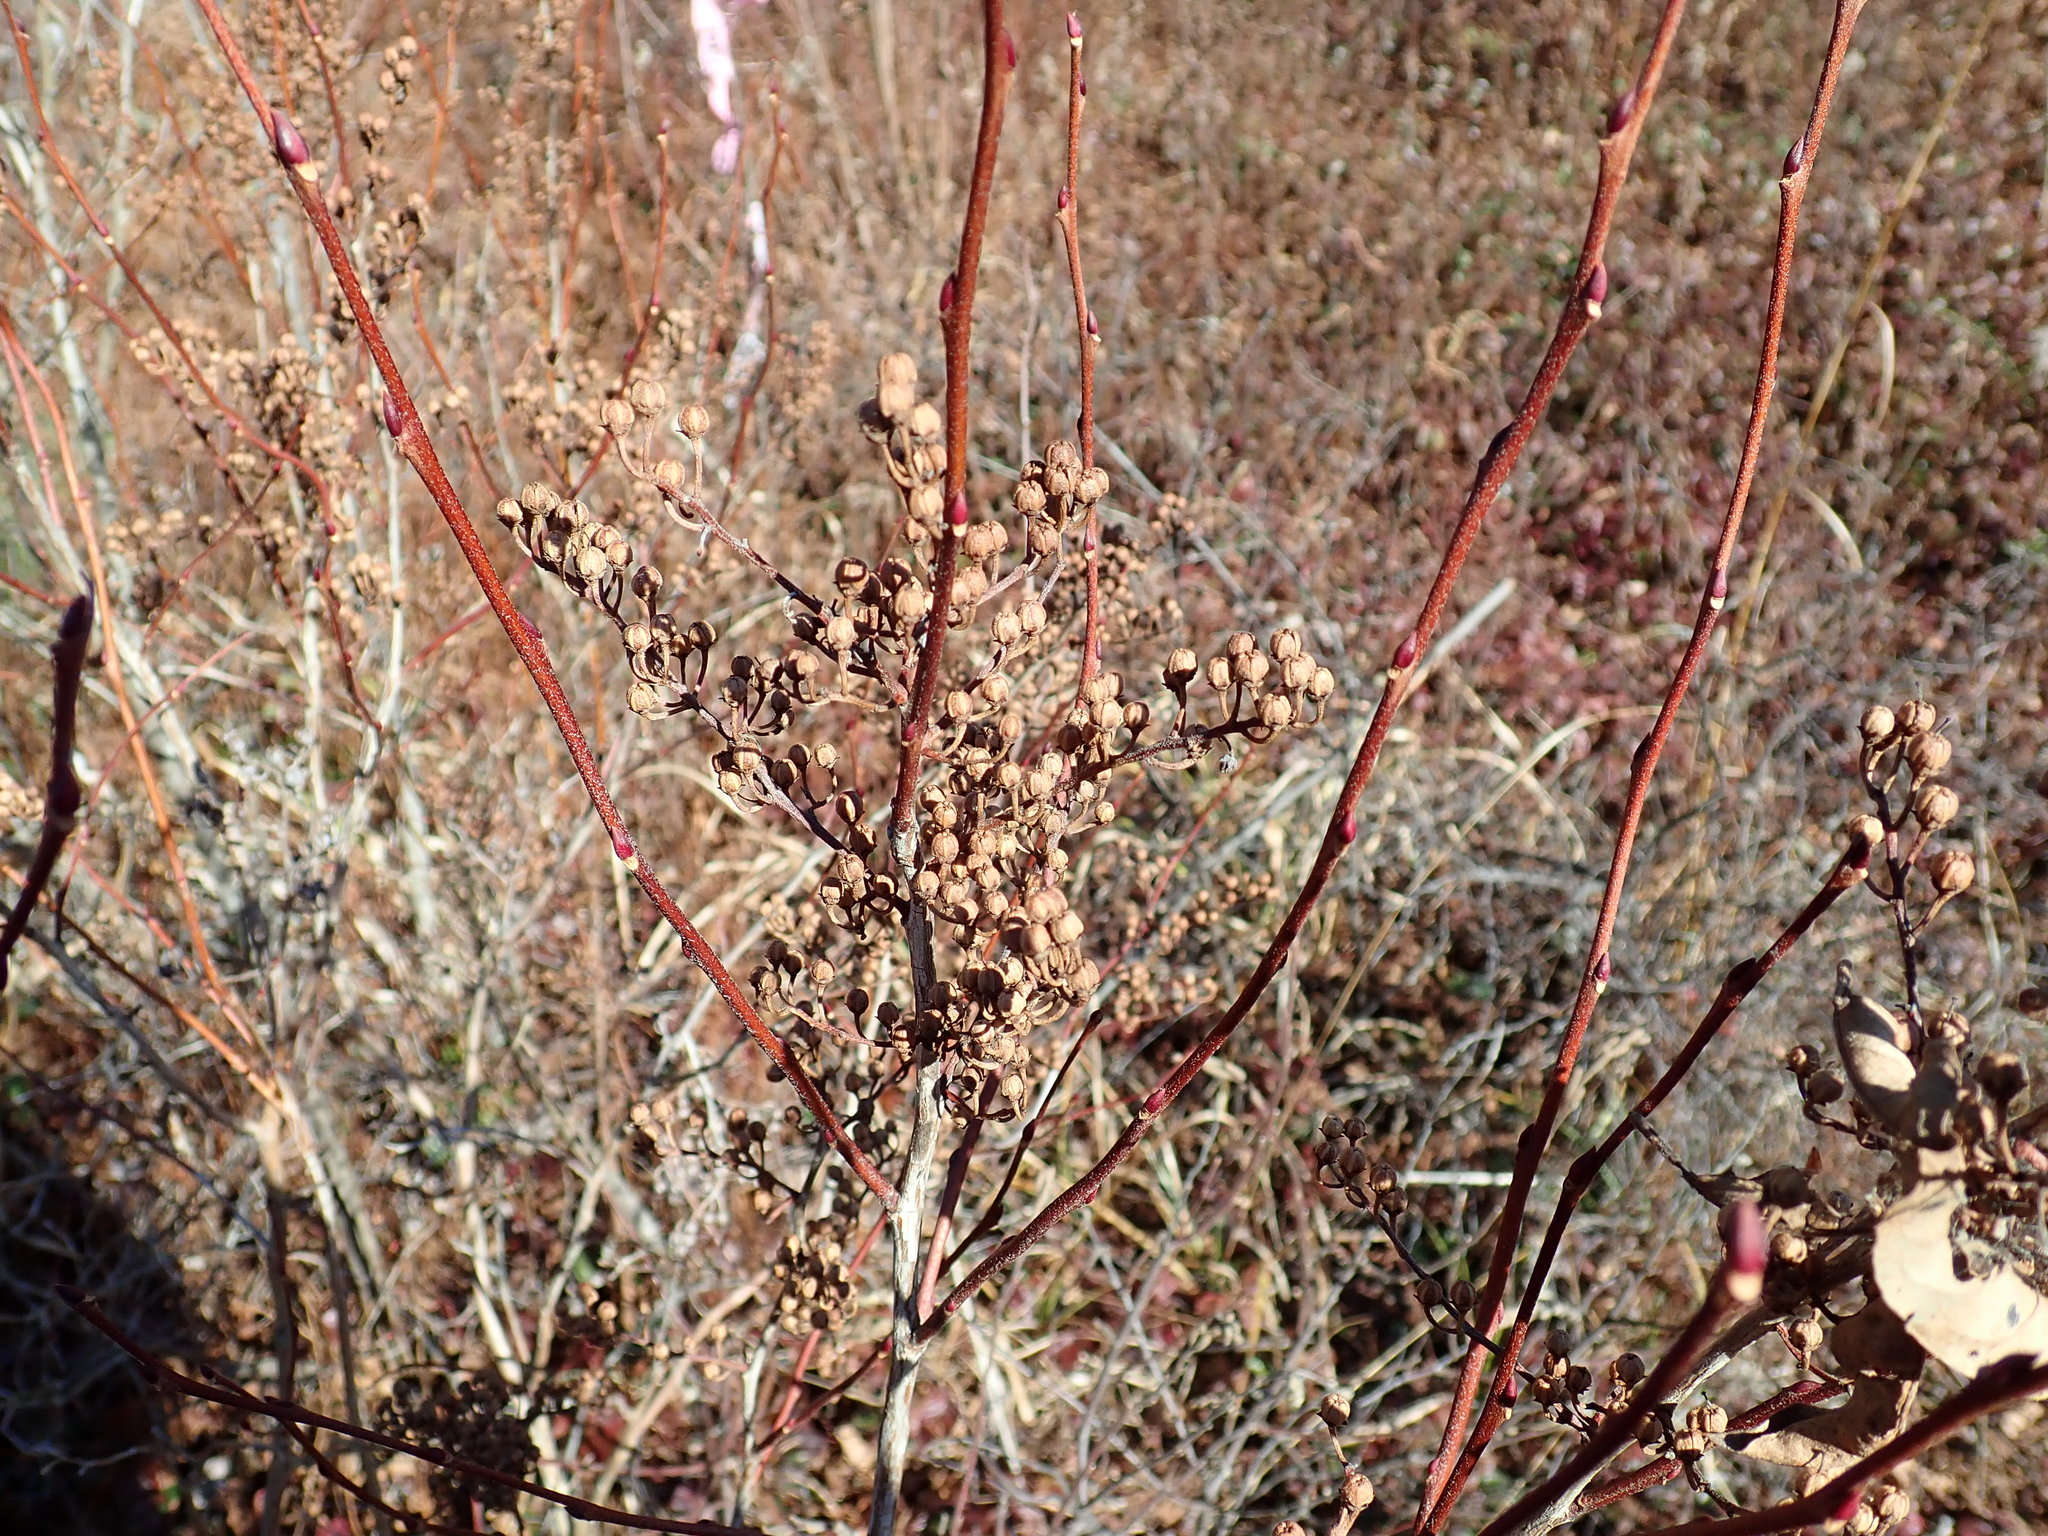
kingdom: Plantae
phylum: Tracheophyta
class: Magnoliopsida
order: Ericales
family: Ericaceae
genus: Lyonia
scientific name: Lyonia ligustrina
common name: Maleberry
